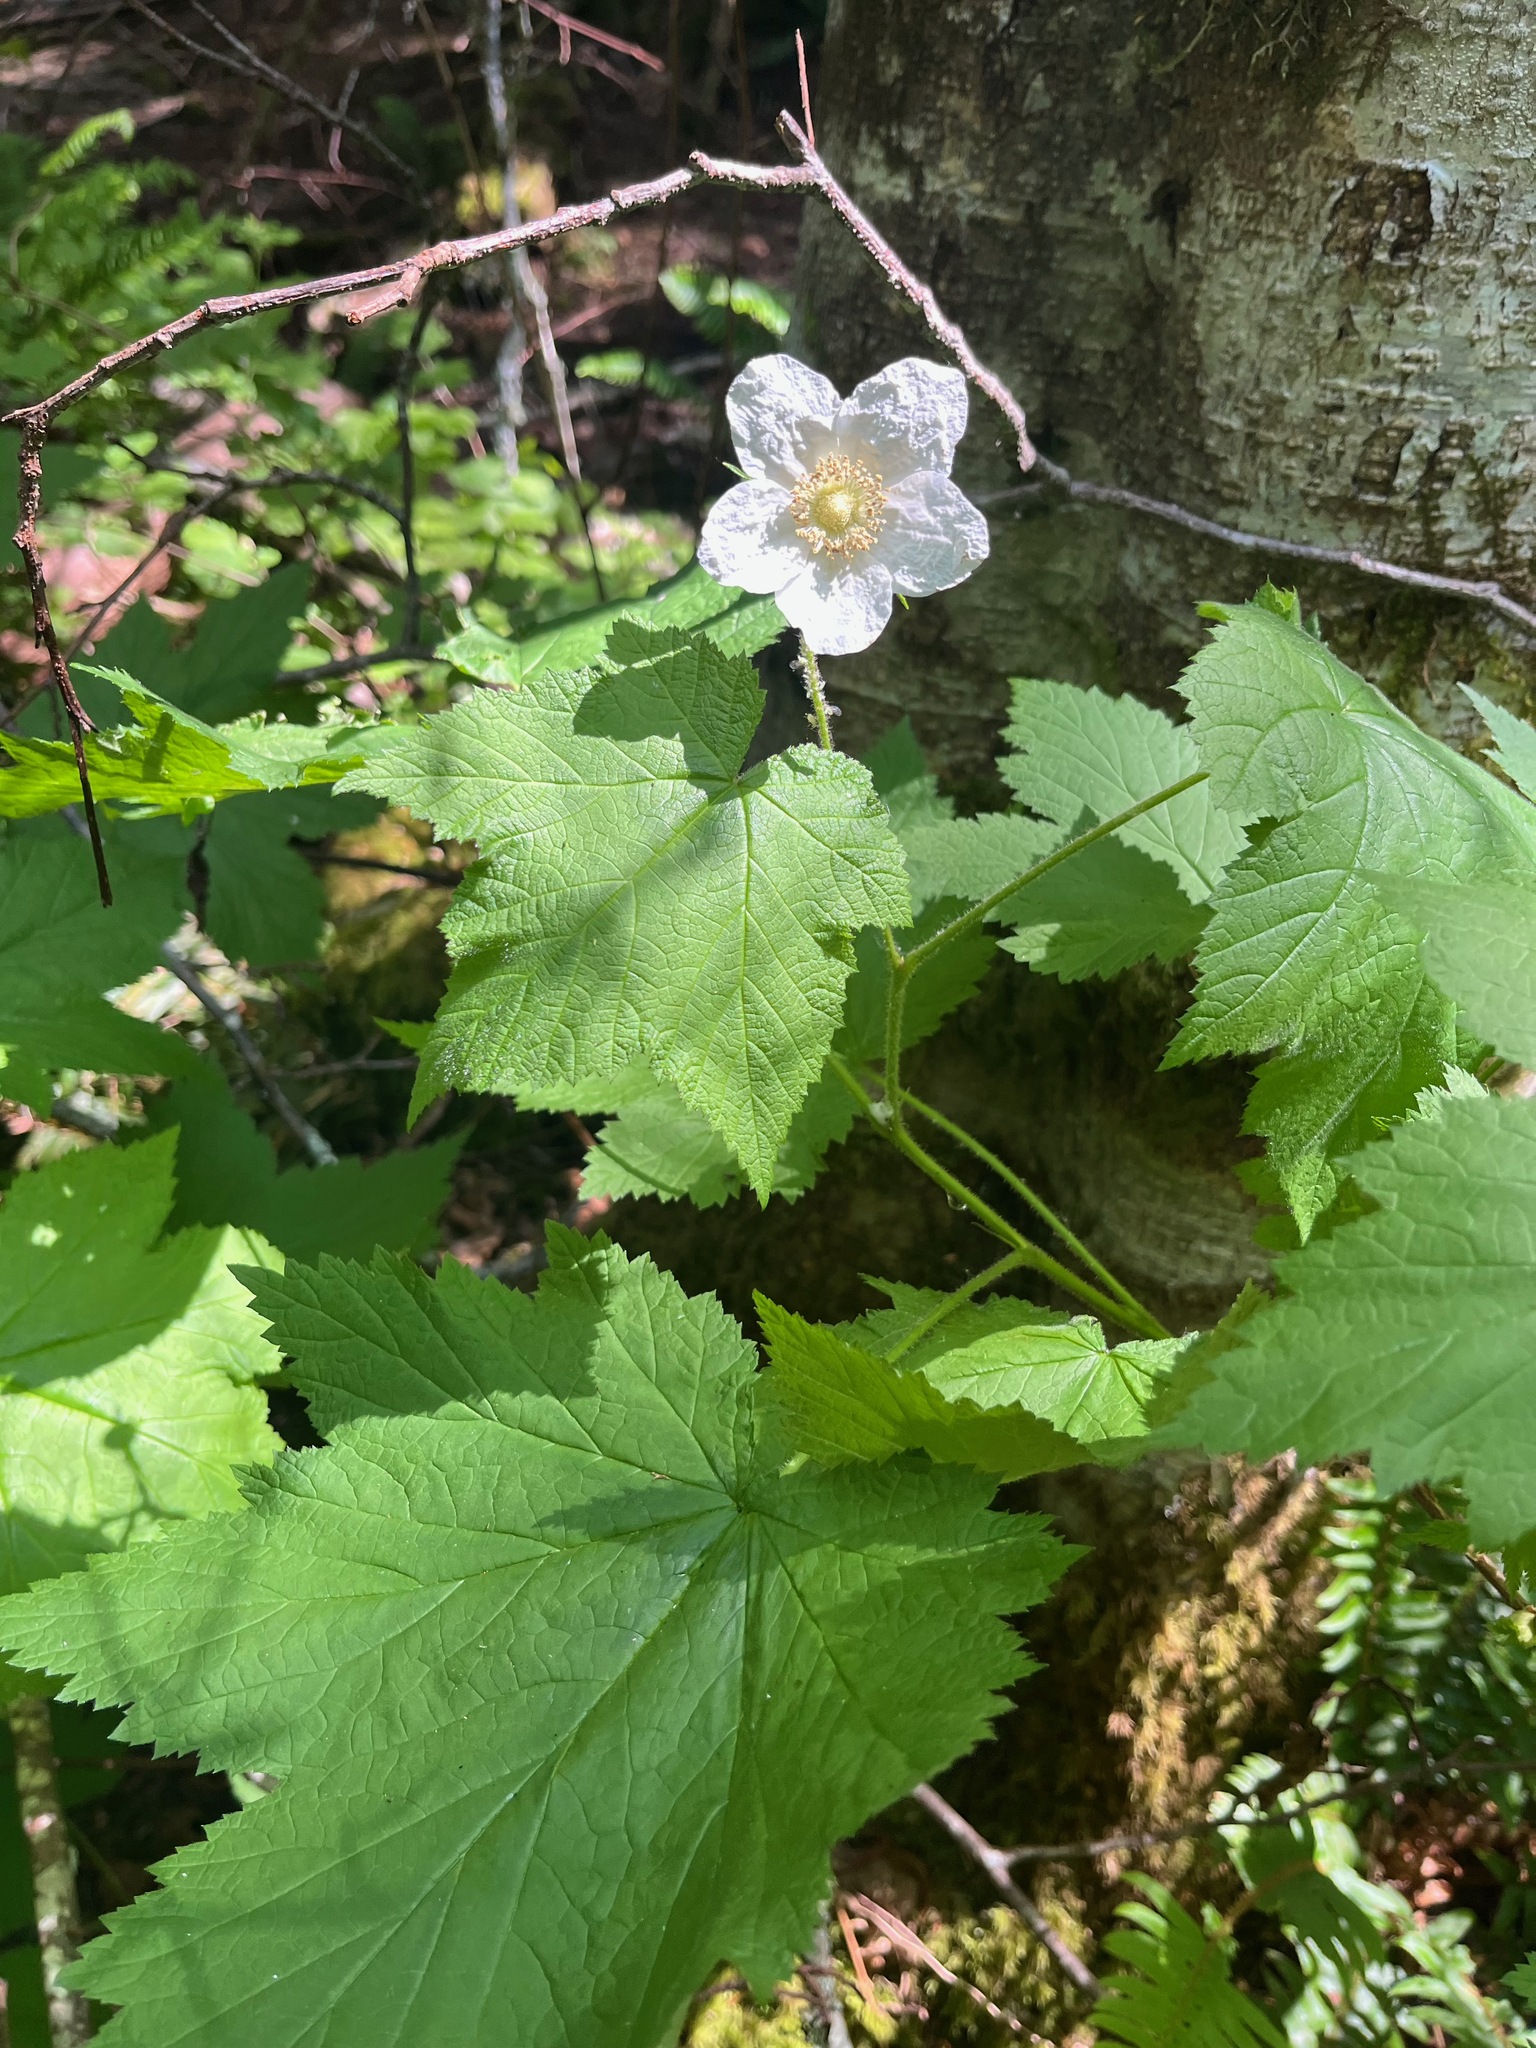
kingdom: Plantae
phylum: Tracheophyta
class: Magnoliopsida
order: Rosales
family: Rosaceae
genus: Rubus
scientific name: Rubus parviflorus
